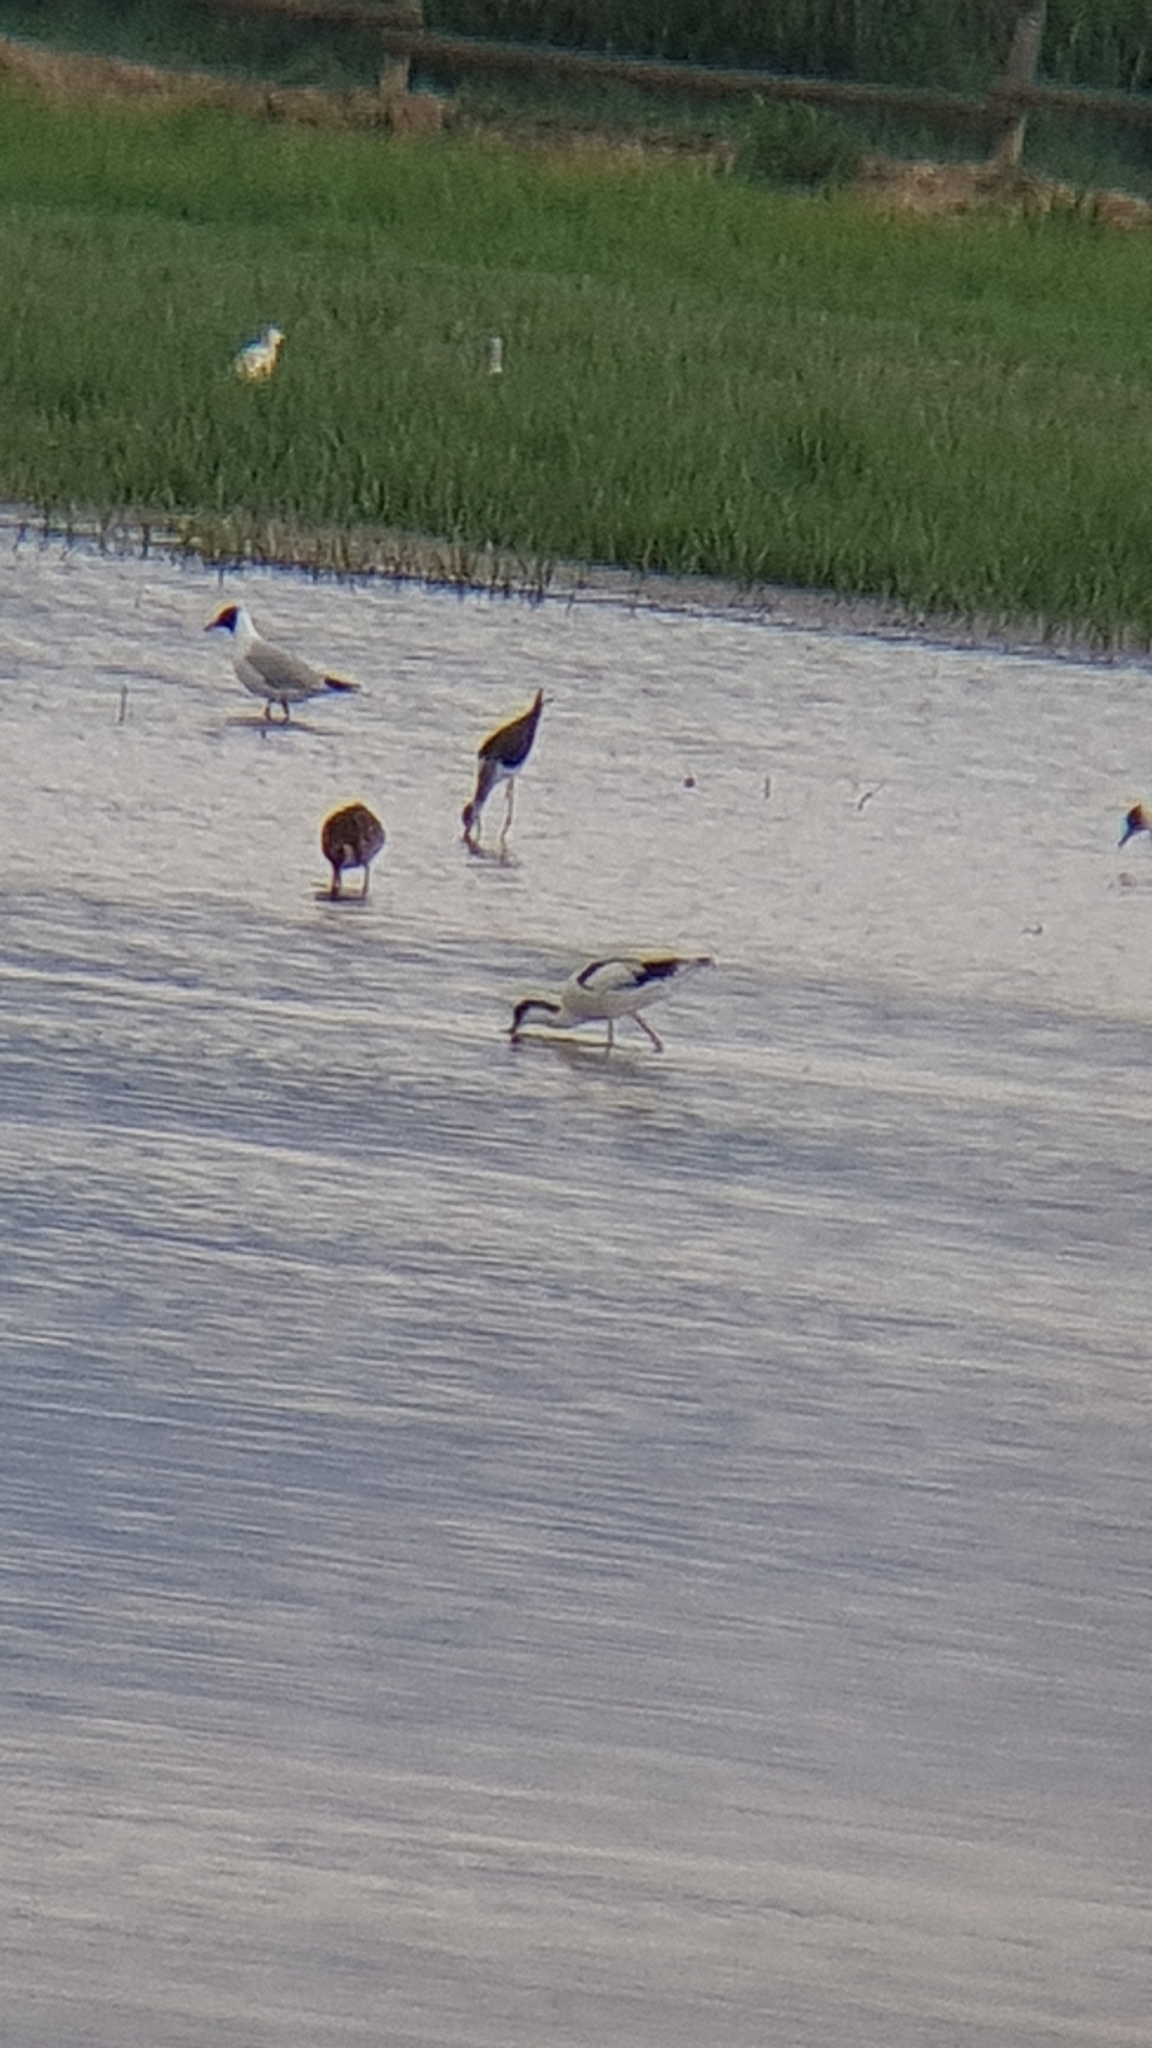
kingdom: Animalia
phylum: Chordata
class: Aves
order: Charadriiformes
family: Recurvirostridae
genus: Recurvirostra
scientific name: Recurvirostra avosetta
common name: Pied avocet
